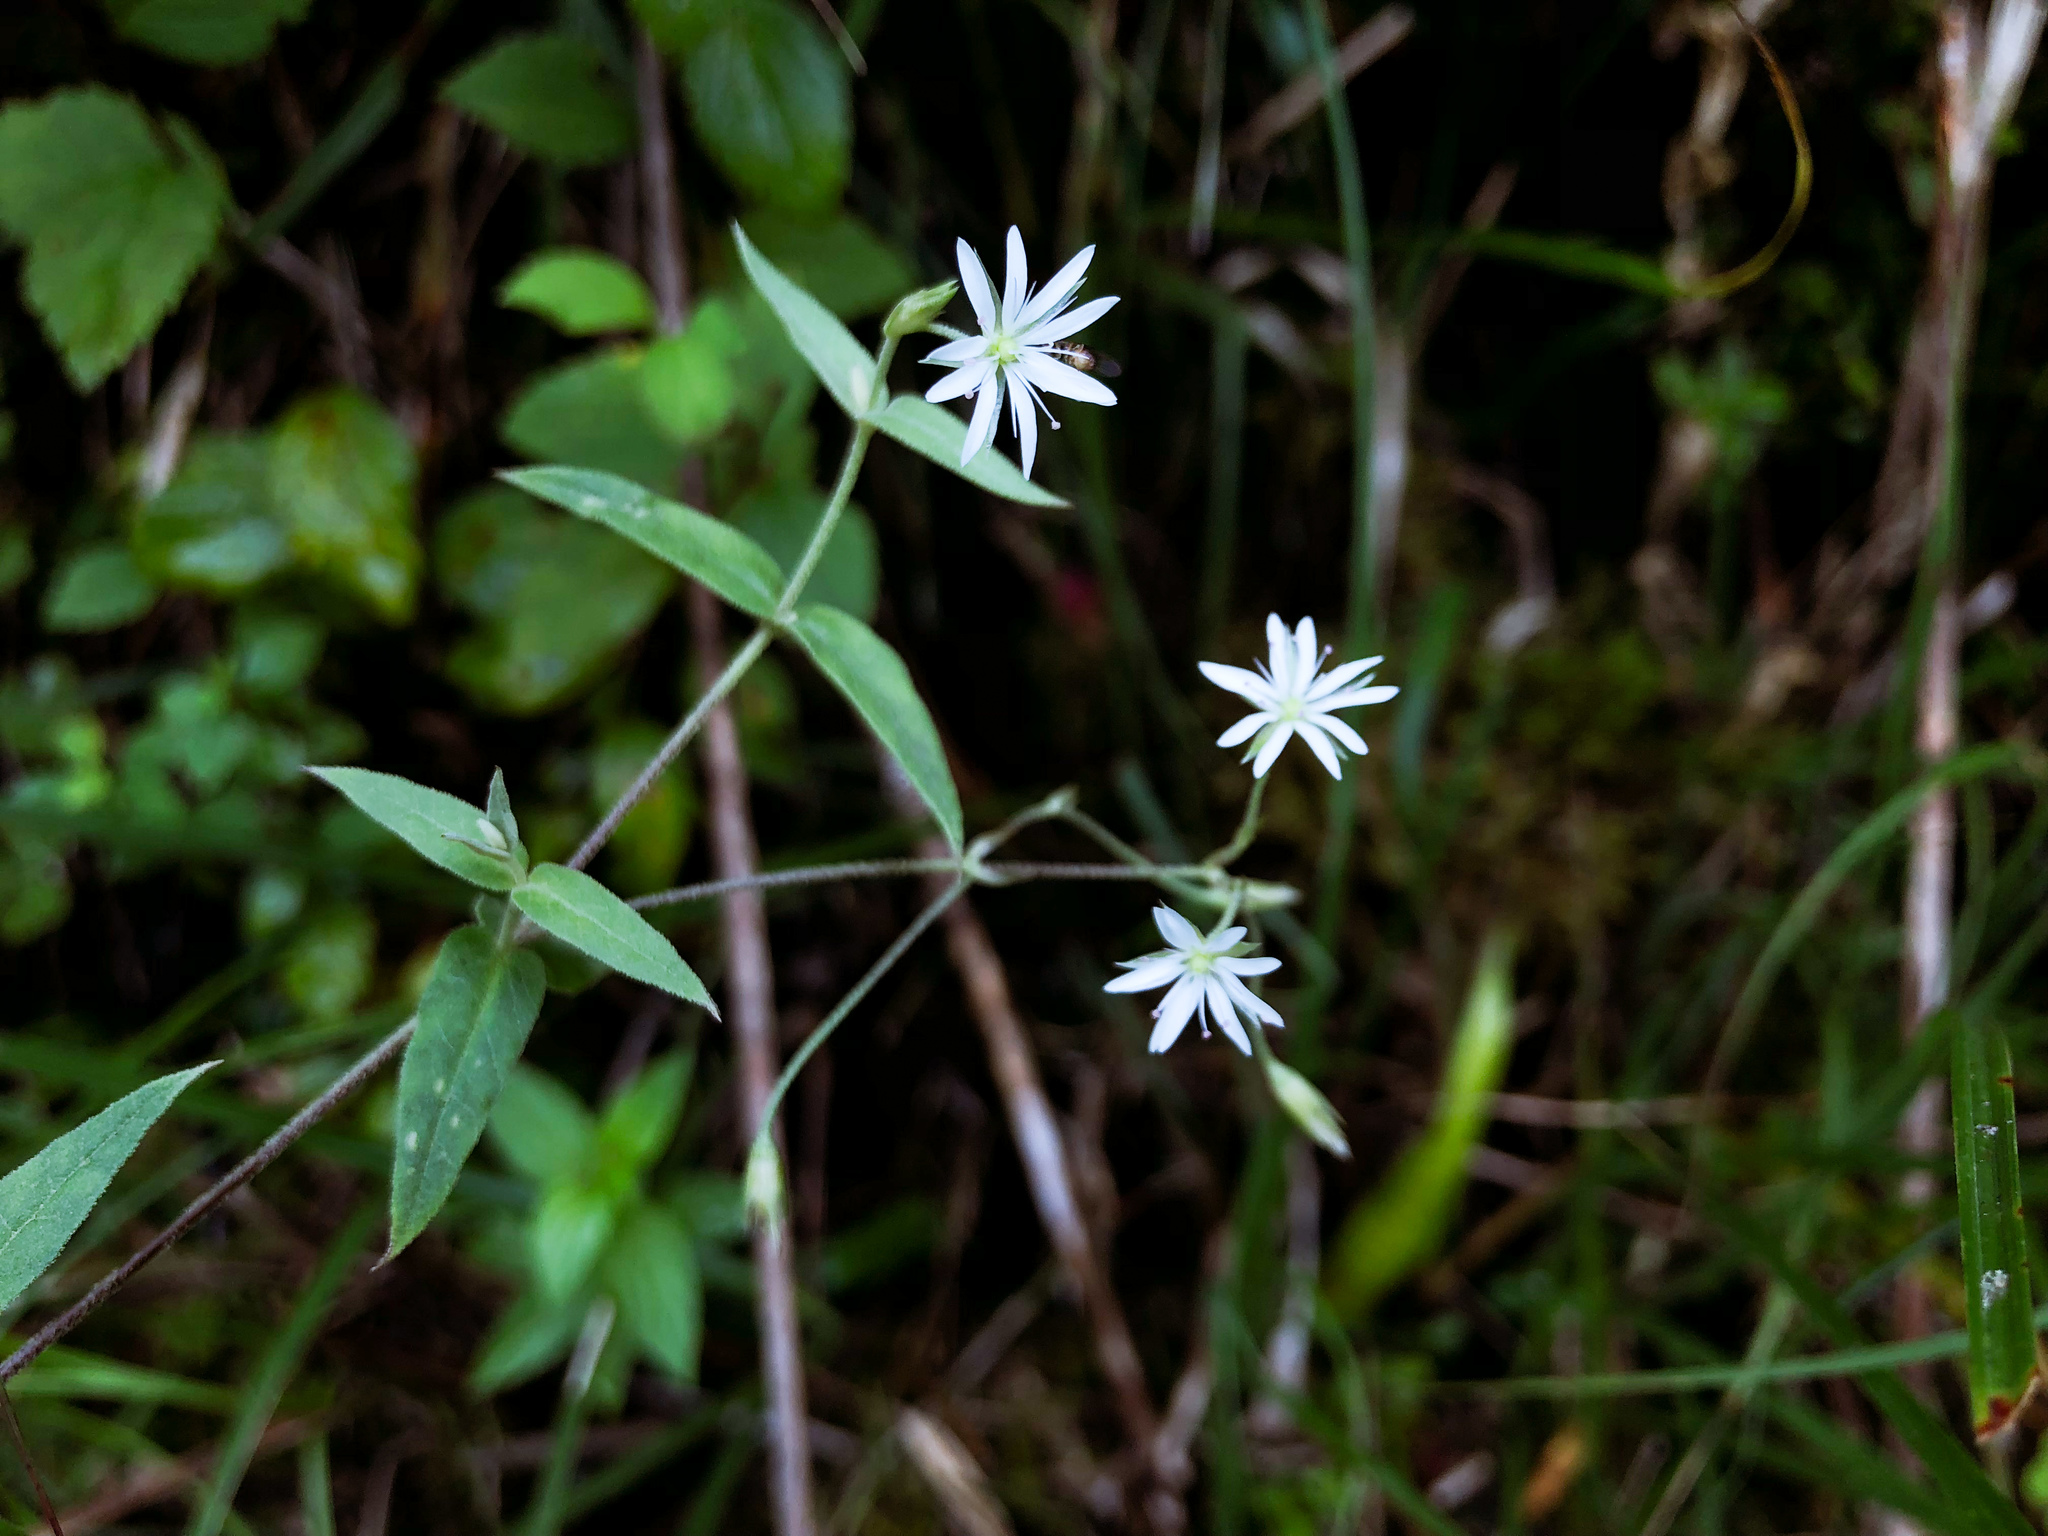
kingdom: Plantae
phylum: Tracheophyta
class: Magnoliopsida
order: Caryophyllales
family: Caryophyllaceae
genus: Stellaria
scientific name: Stellaria vestita
